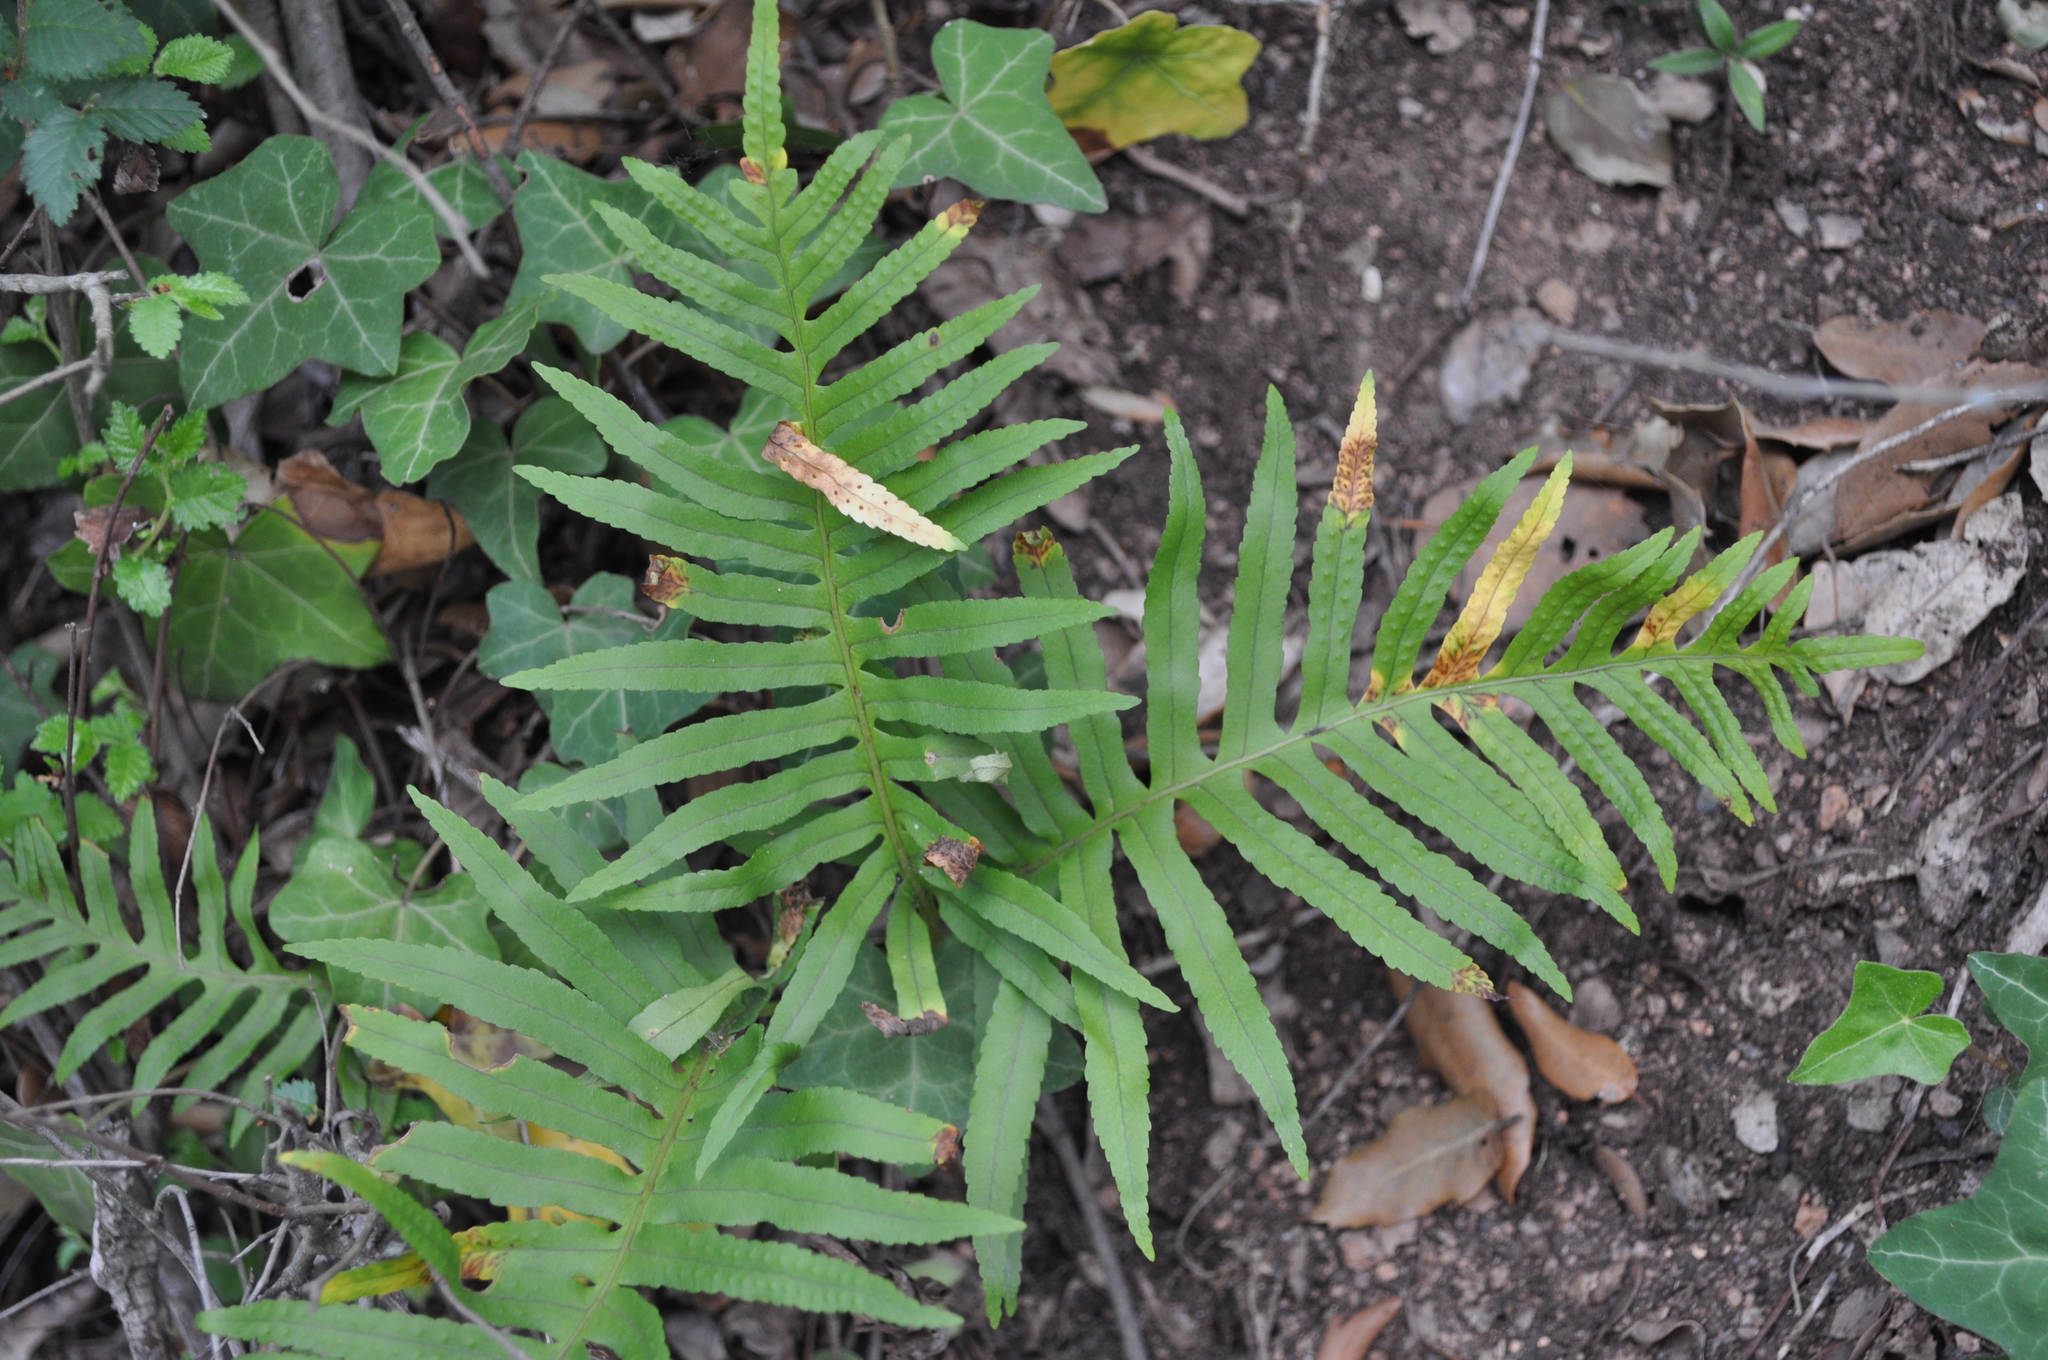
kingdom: Plantae
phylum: Tracheophyta
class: Polypodiopsida
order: Polypodiales
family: Polypodiaceae
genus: Polypodium
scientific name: Polypodium cambricum
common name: Southern polypody
